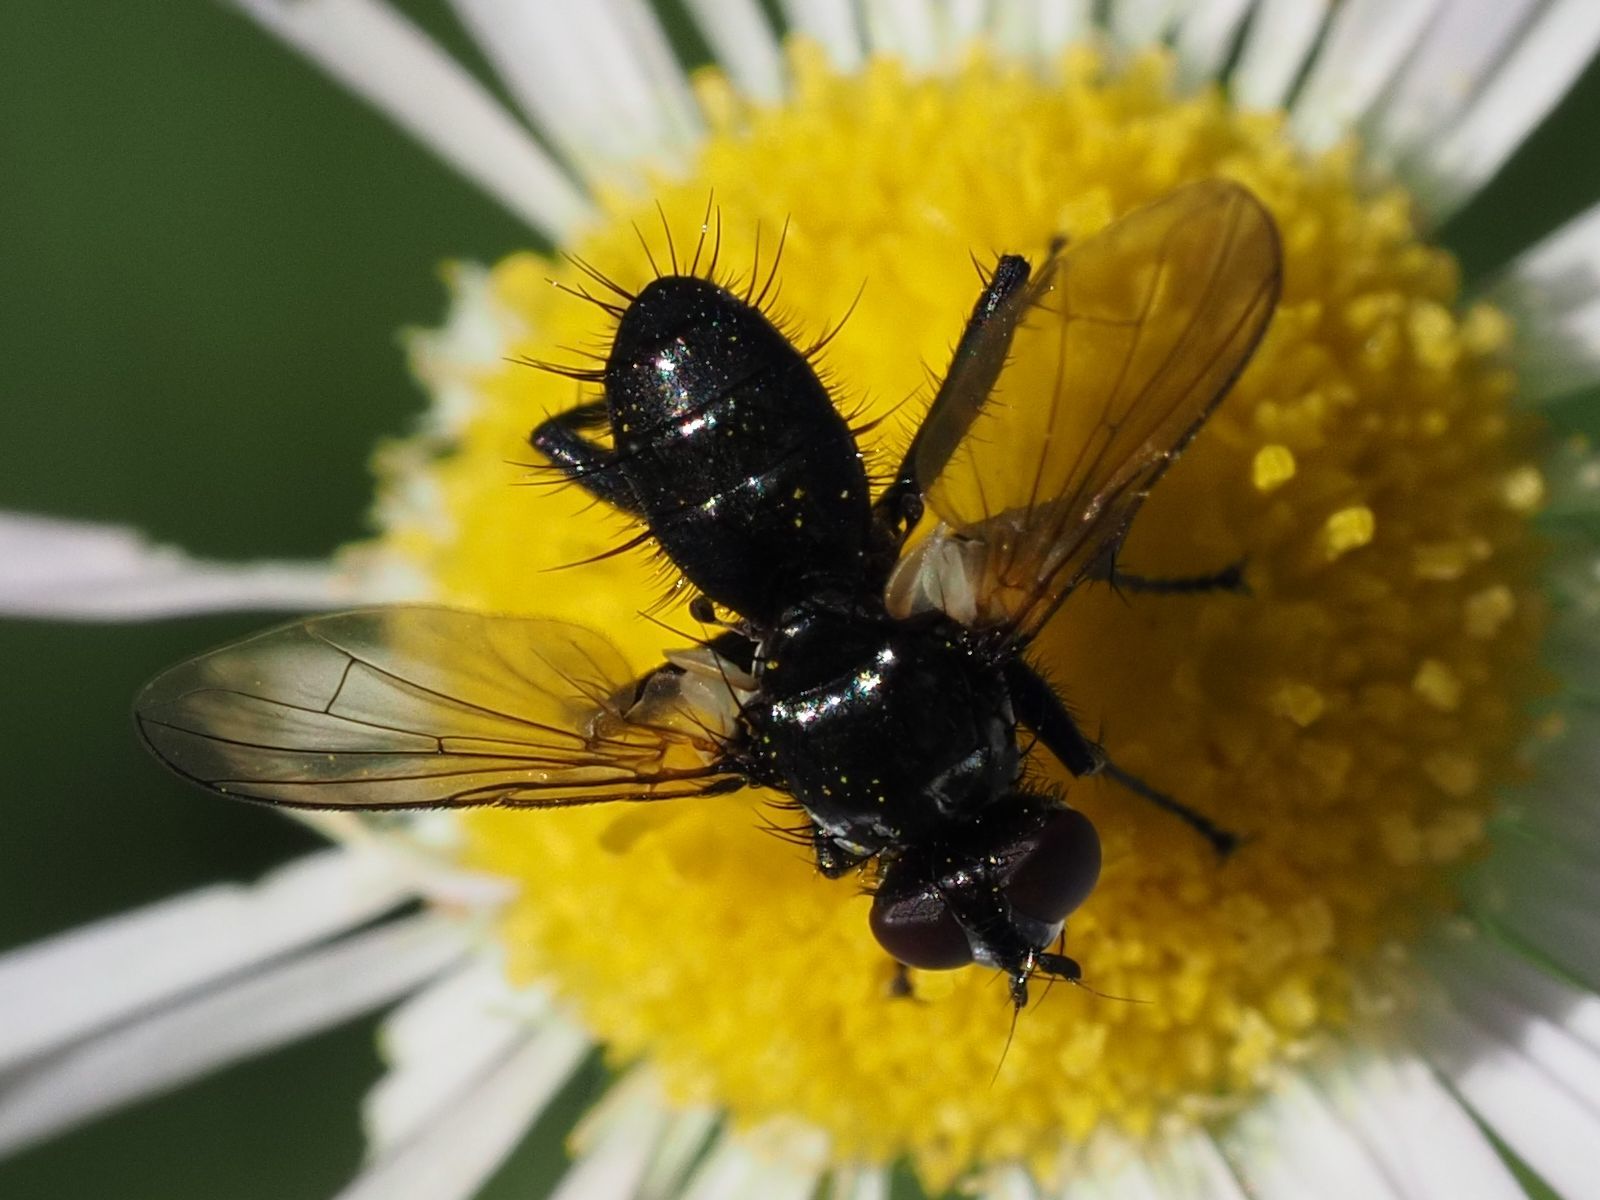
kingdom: Animalia
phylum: Arthropoda
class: Insecta
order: Diptera
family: Tachinidae
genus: Phania
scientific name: Phania funesta
